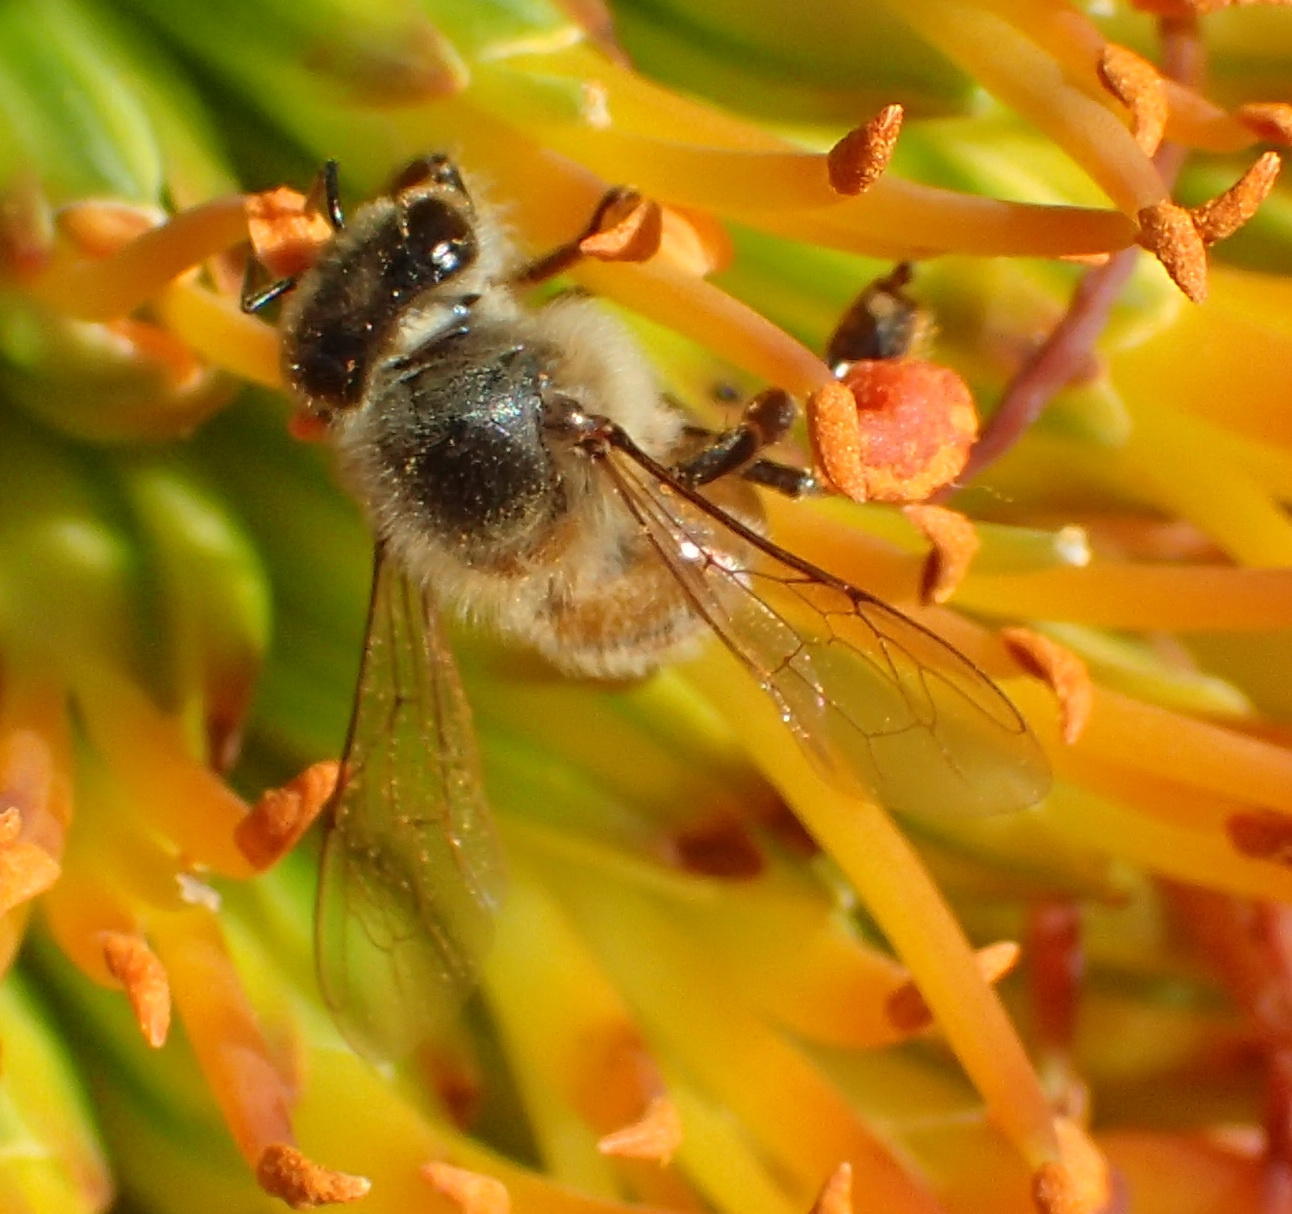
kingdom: Animalia
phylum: Arthropoda
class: Insecta
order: Hymenoptera
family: Apidae
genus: Apis
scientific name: Apis mellifera
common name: Honey bee
